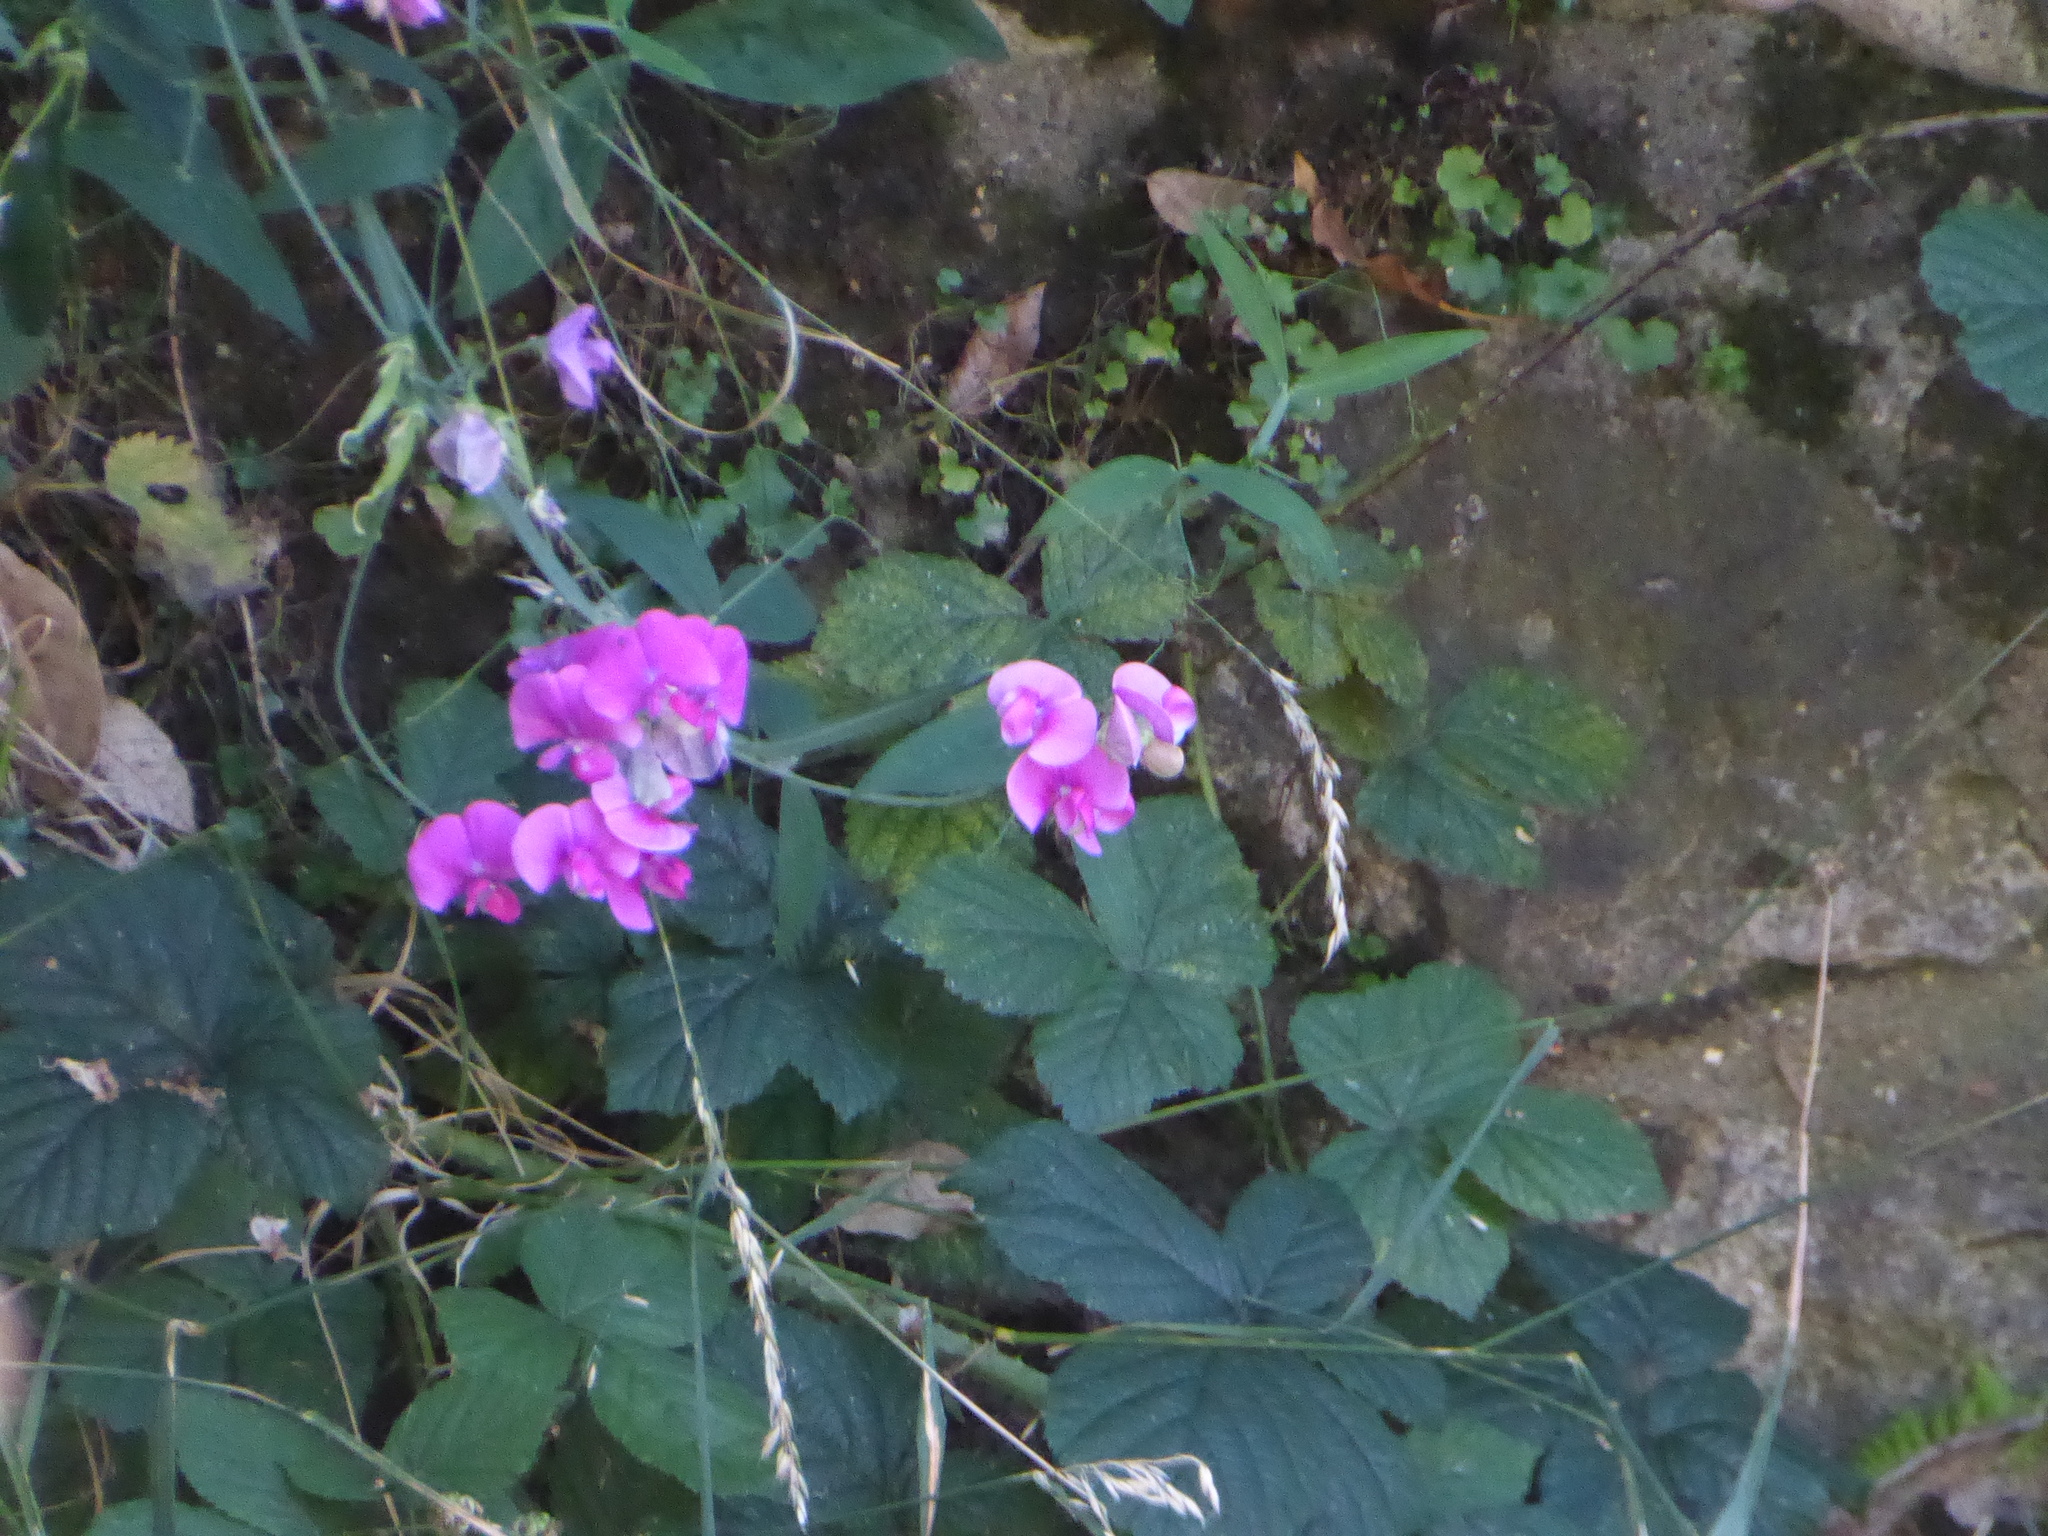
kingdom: Plantae
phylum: Tracheophyta
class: Magnoliopsida
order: Fabales
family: Fabaceae
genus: Lathyrus
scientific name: Lathyrus latifolius
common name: Perennial pea
